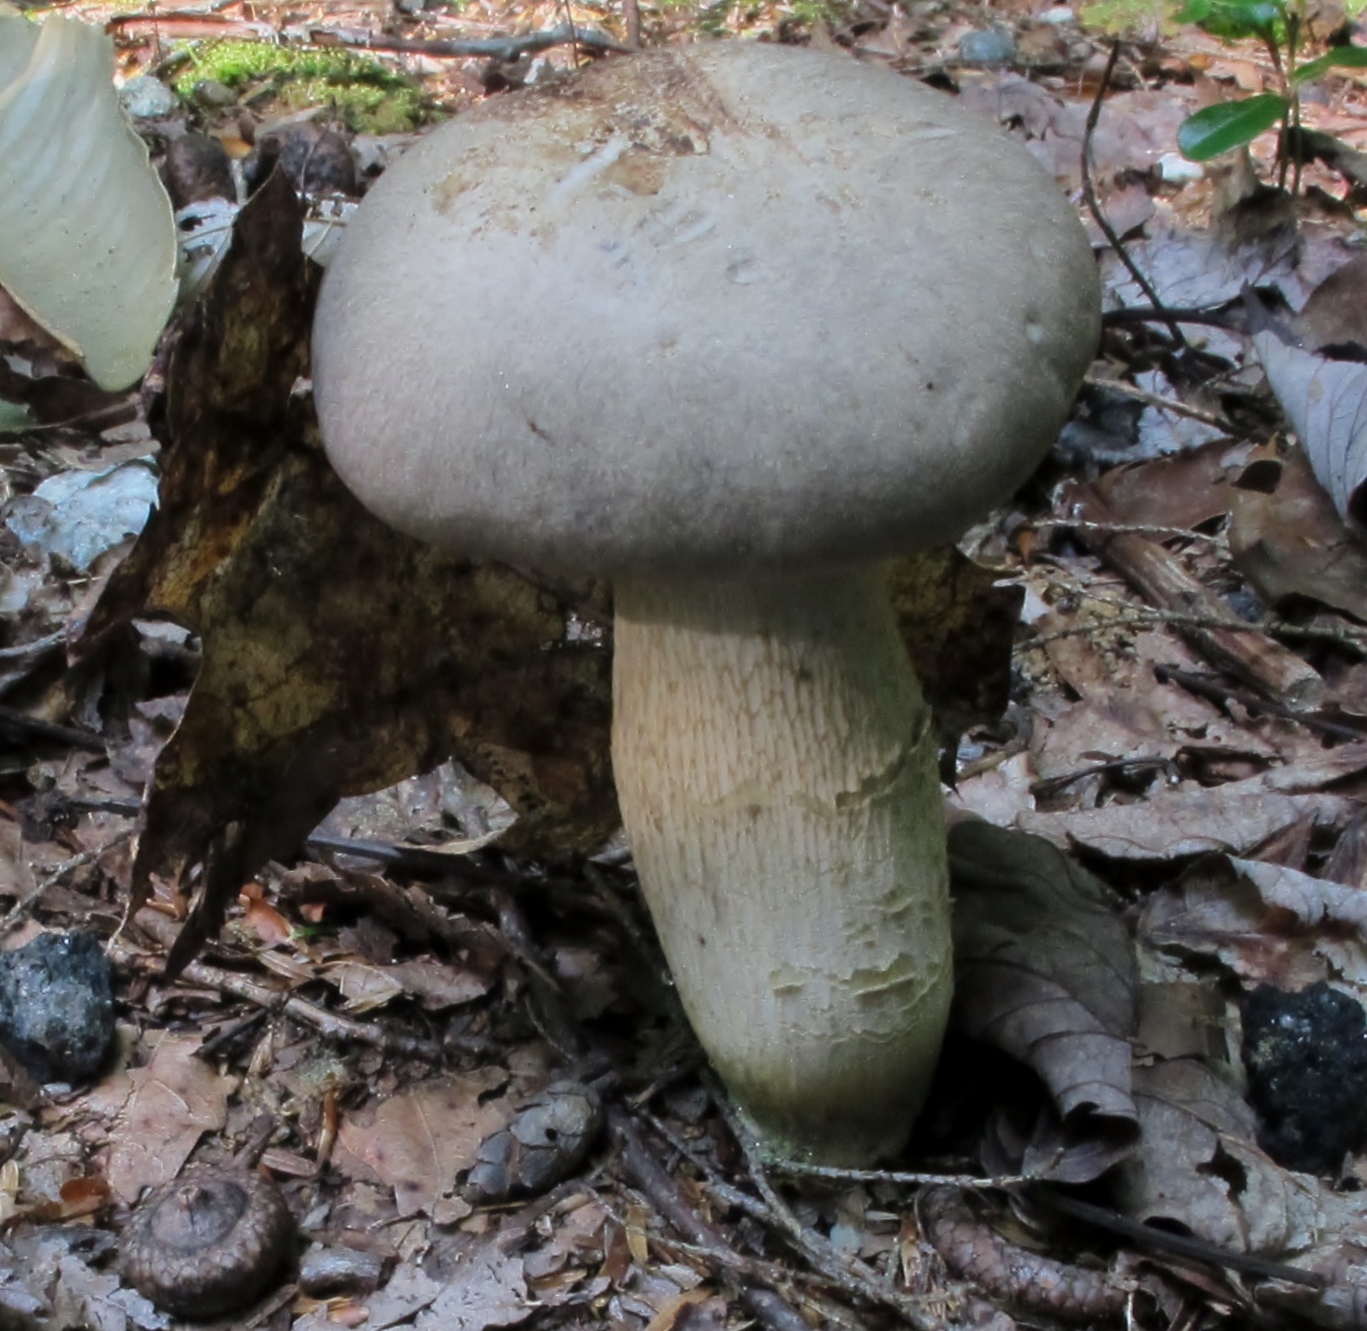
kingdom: Fungi
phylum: Basidiomycota
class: Agaricomycetes
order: Boletales
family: Boletaceae
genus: Retiboletus
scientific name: Retiboletus griseus
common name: Grey bolete
